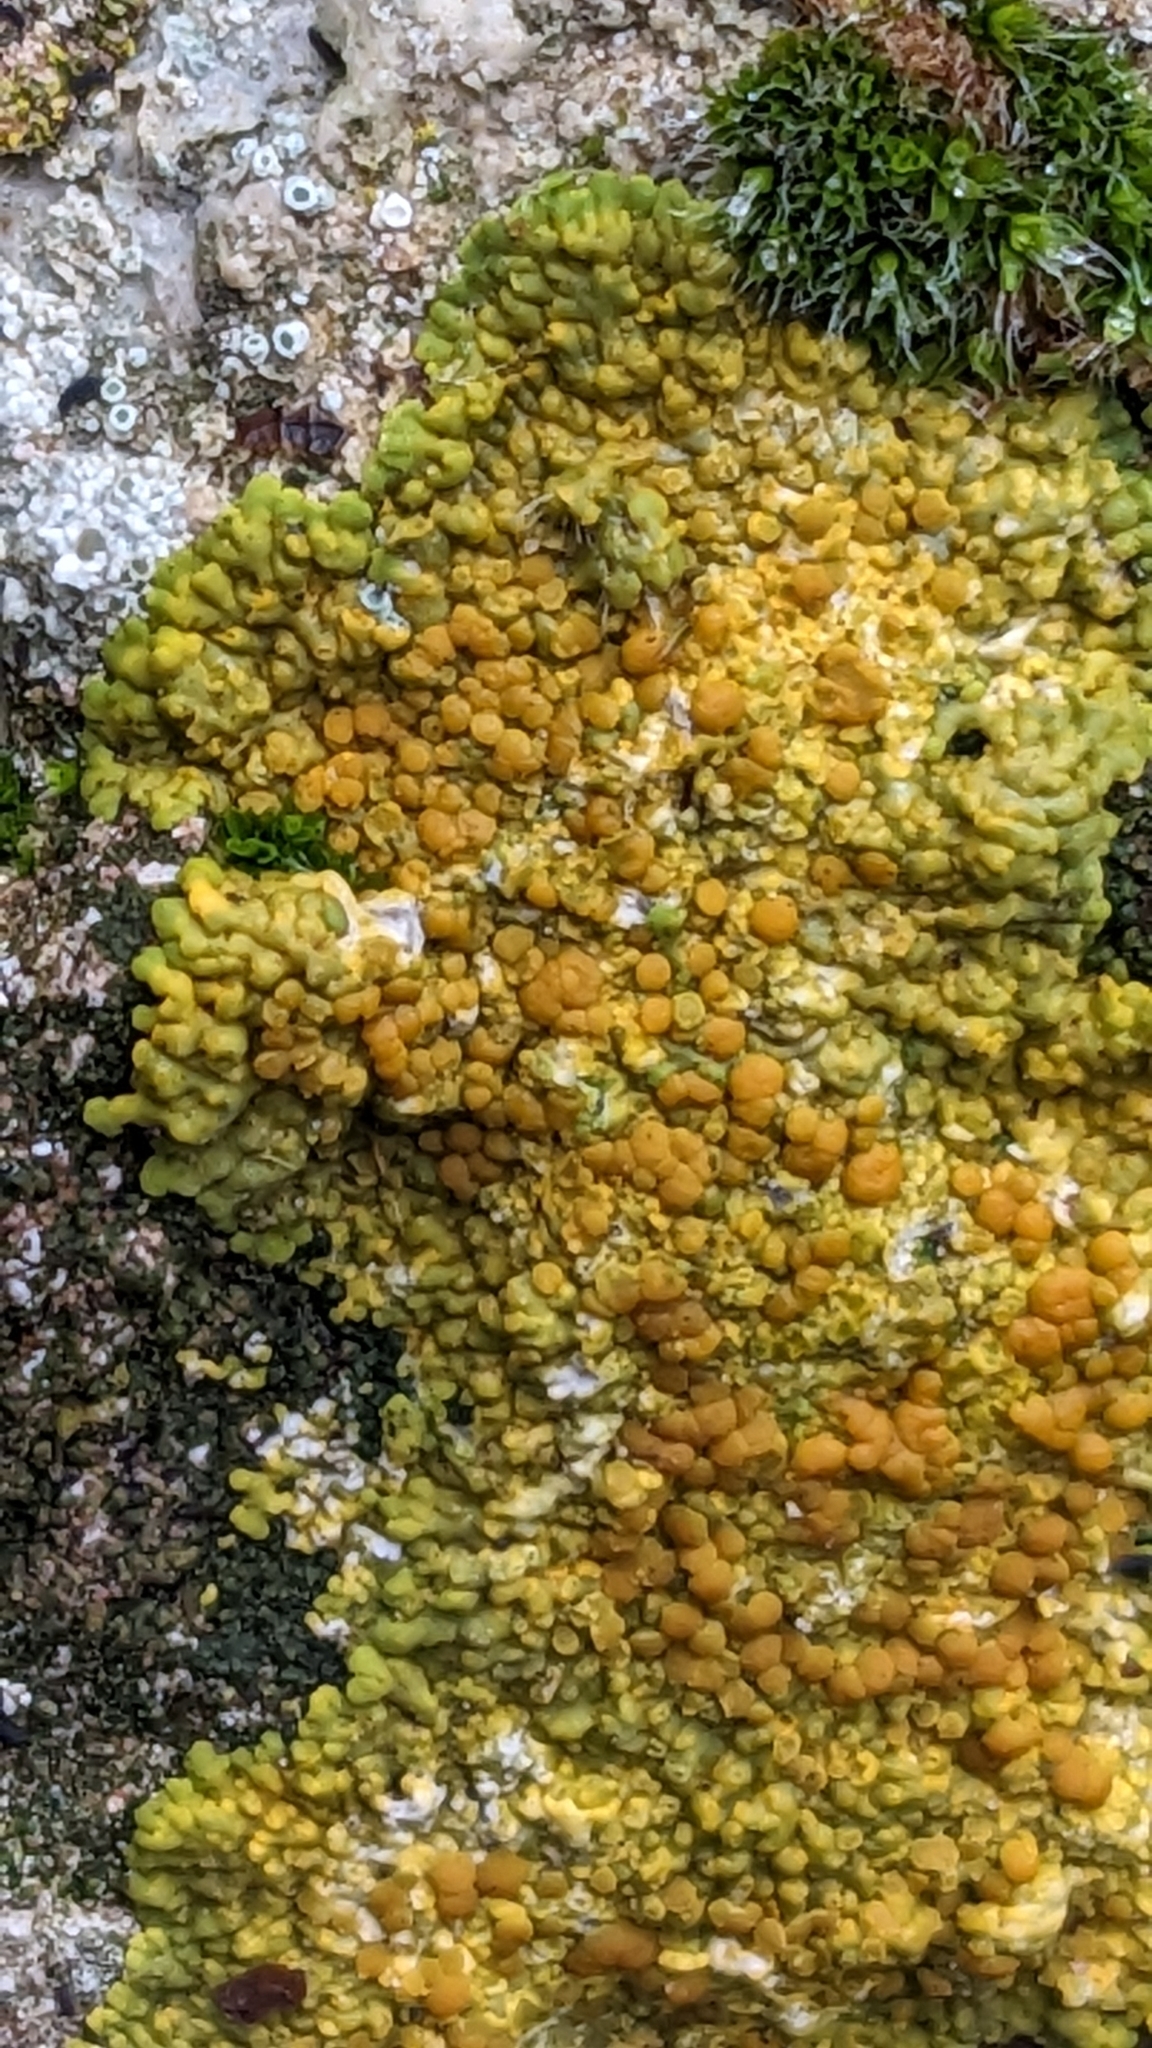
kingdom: Fungi
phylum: Ascomycota
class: Lecanoromycetes
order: Teloschistales
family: Teloschistaceae
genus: Variospora
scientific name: Variospora flavescens
